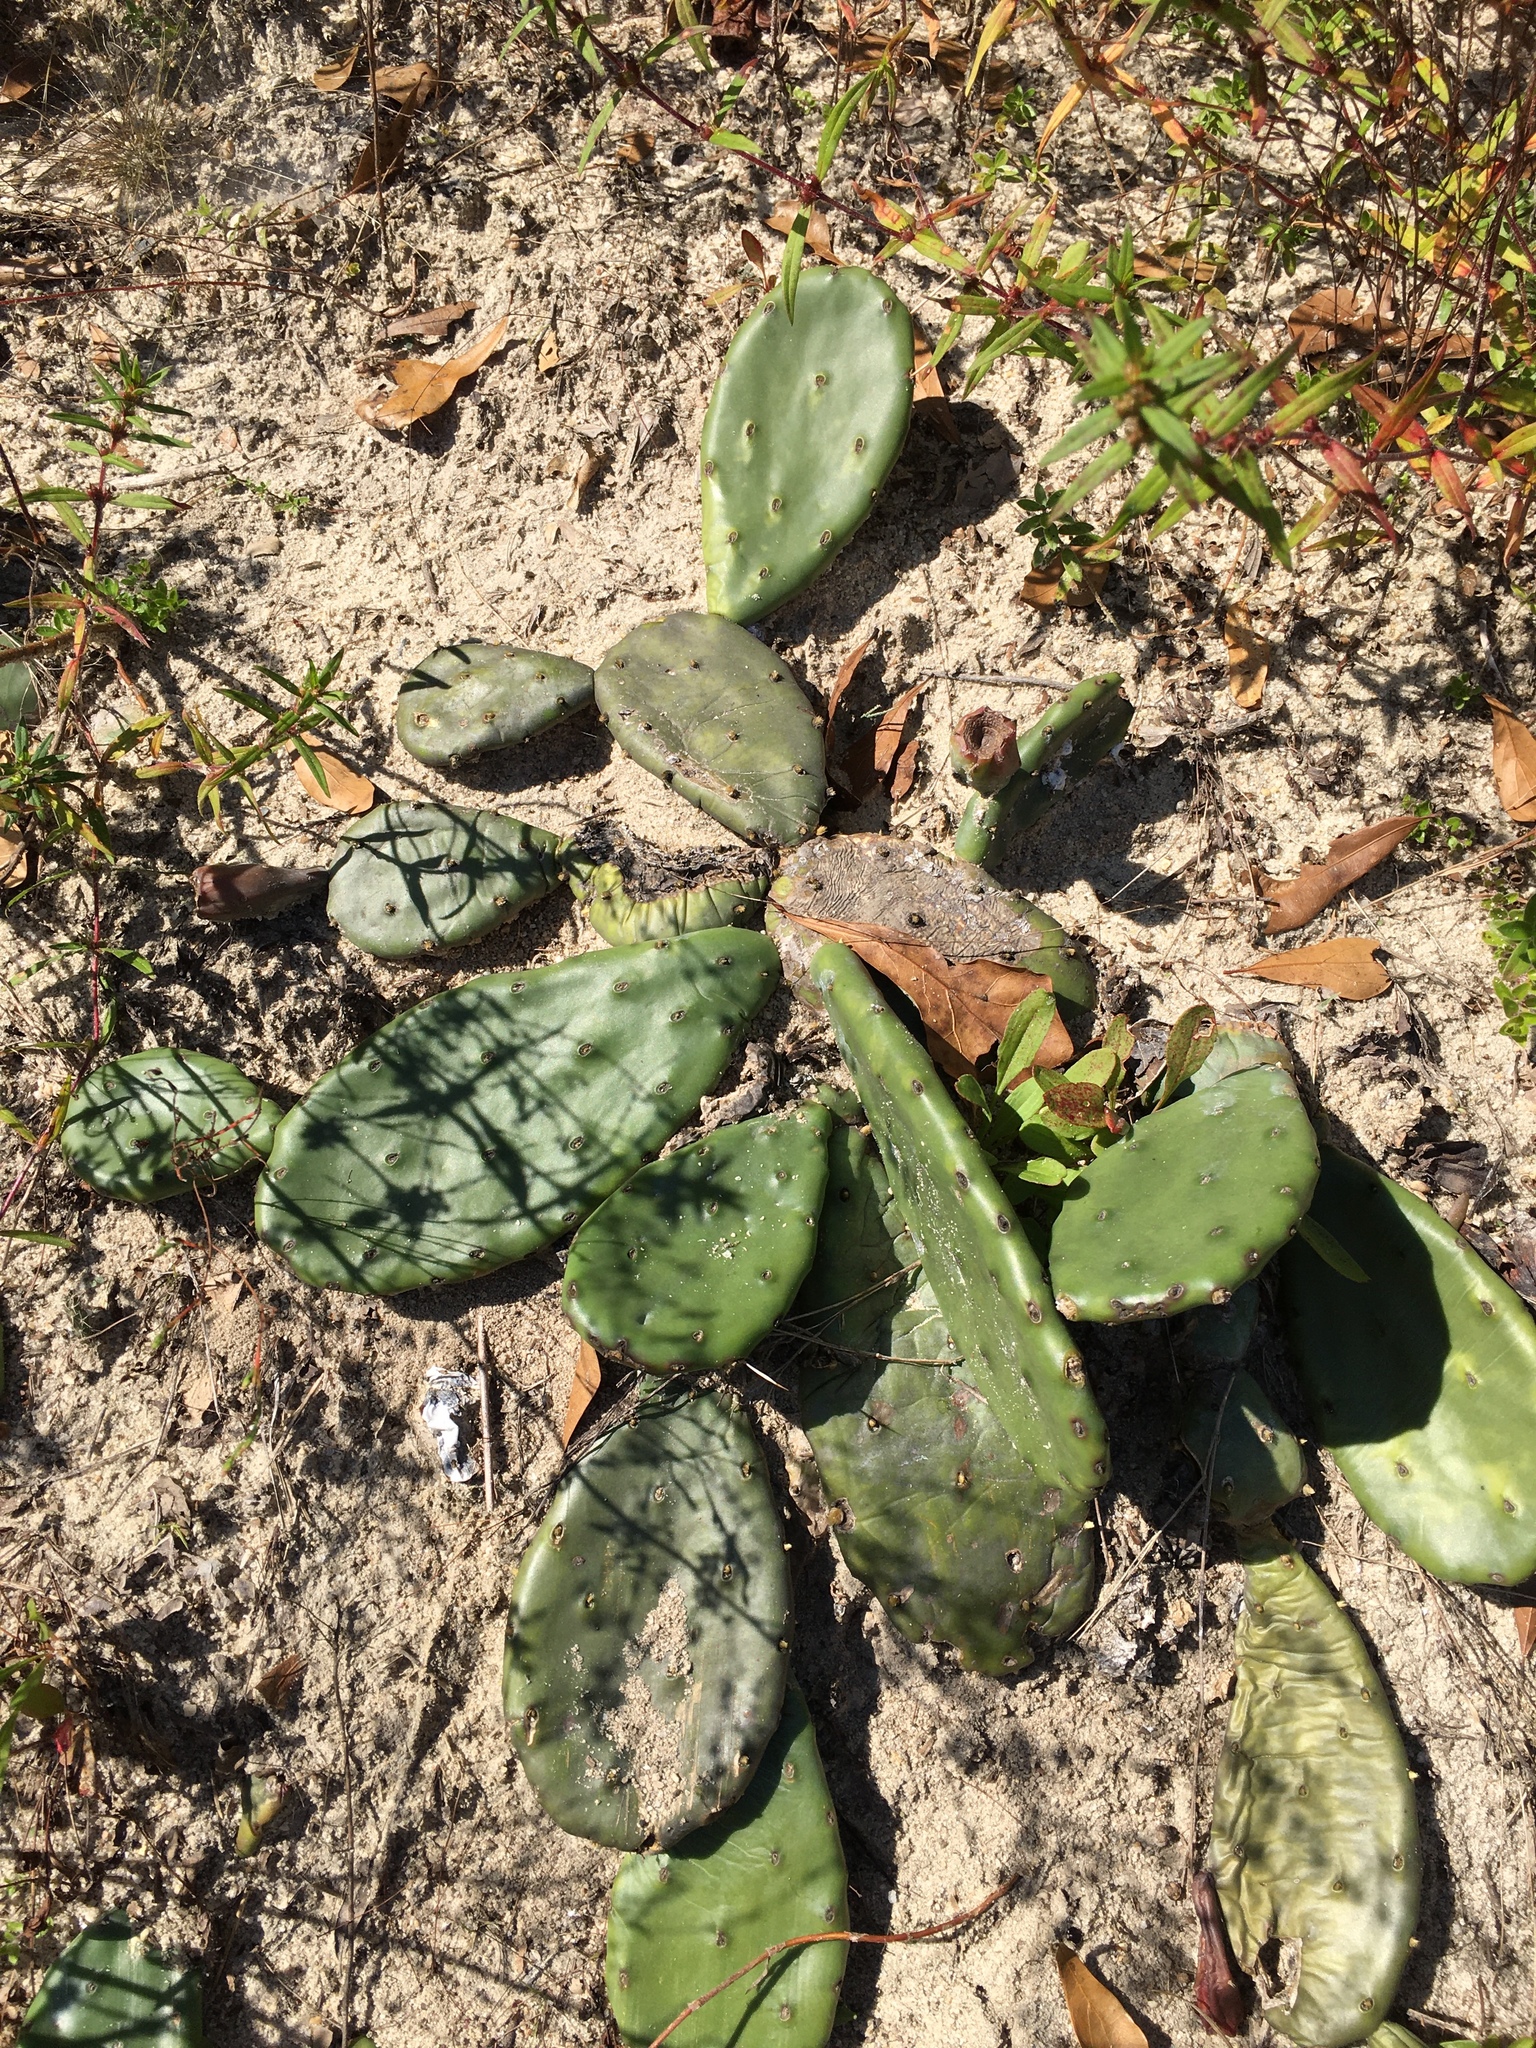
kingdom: Plantae
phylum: Tracheophyta
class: Magnoliopsida
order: Caryophyllales
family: Cactaceae
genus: Opuntia
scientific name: Opuntia mesacantha
